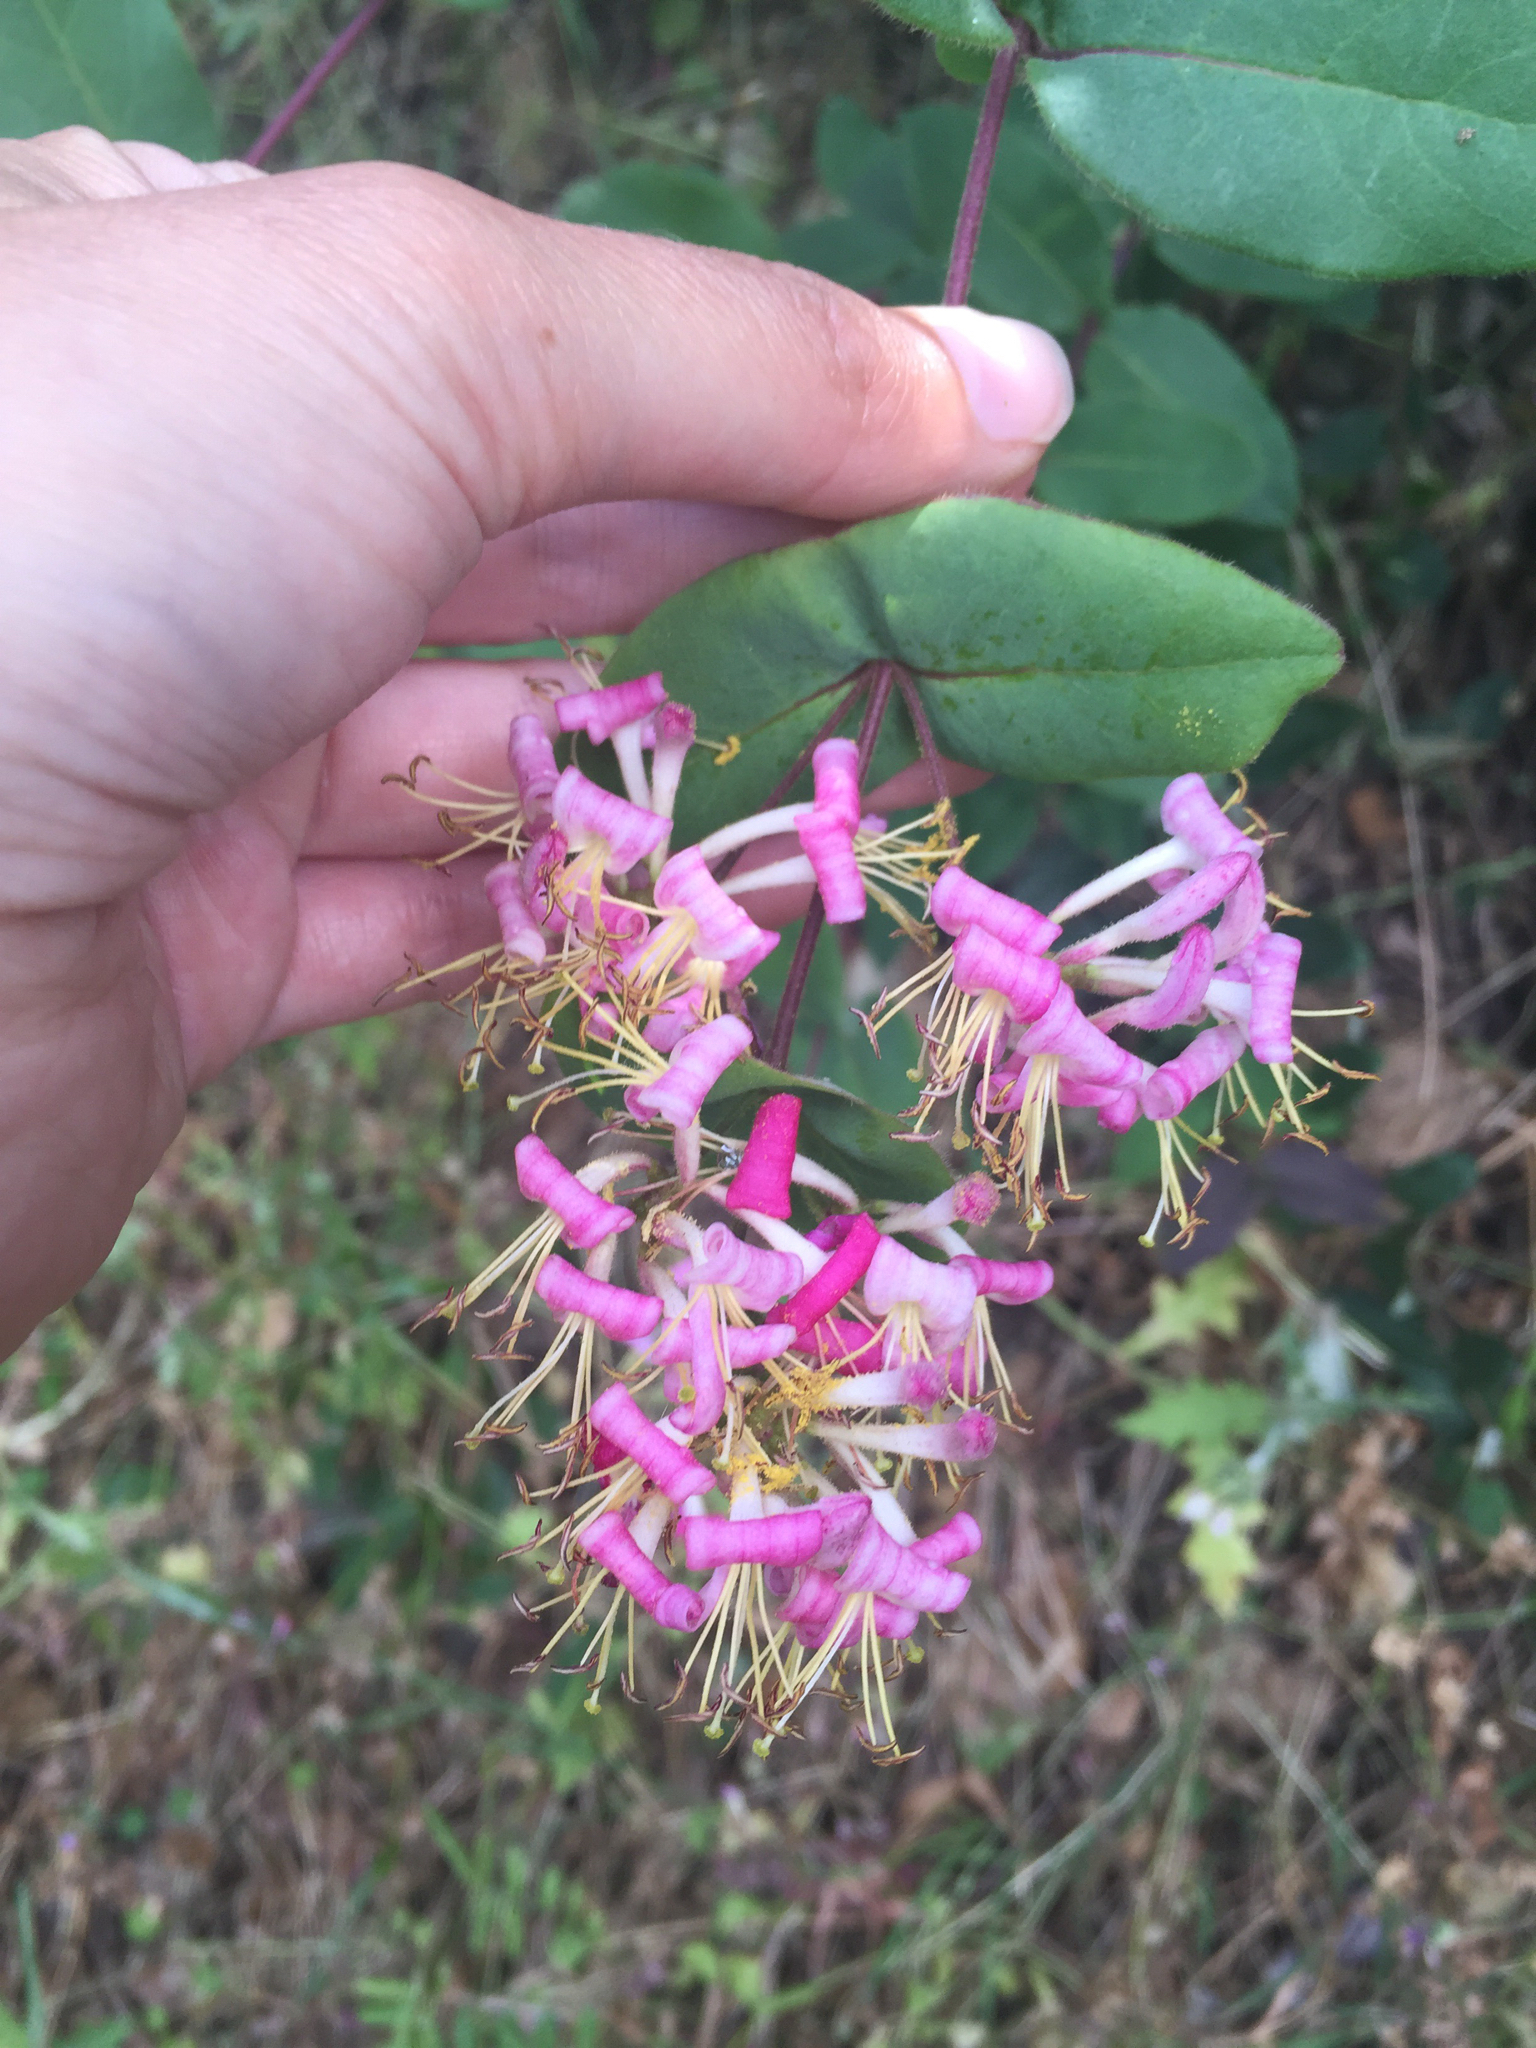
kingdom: Plantae
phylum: Tracheophyta
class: Magnoliopsida
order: Dipsacales
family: Caprifoliaceae
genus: Lonicera
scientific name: Lonicera hispidula
